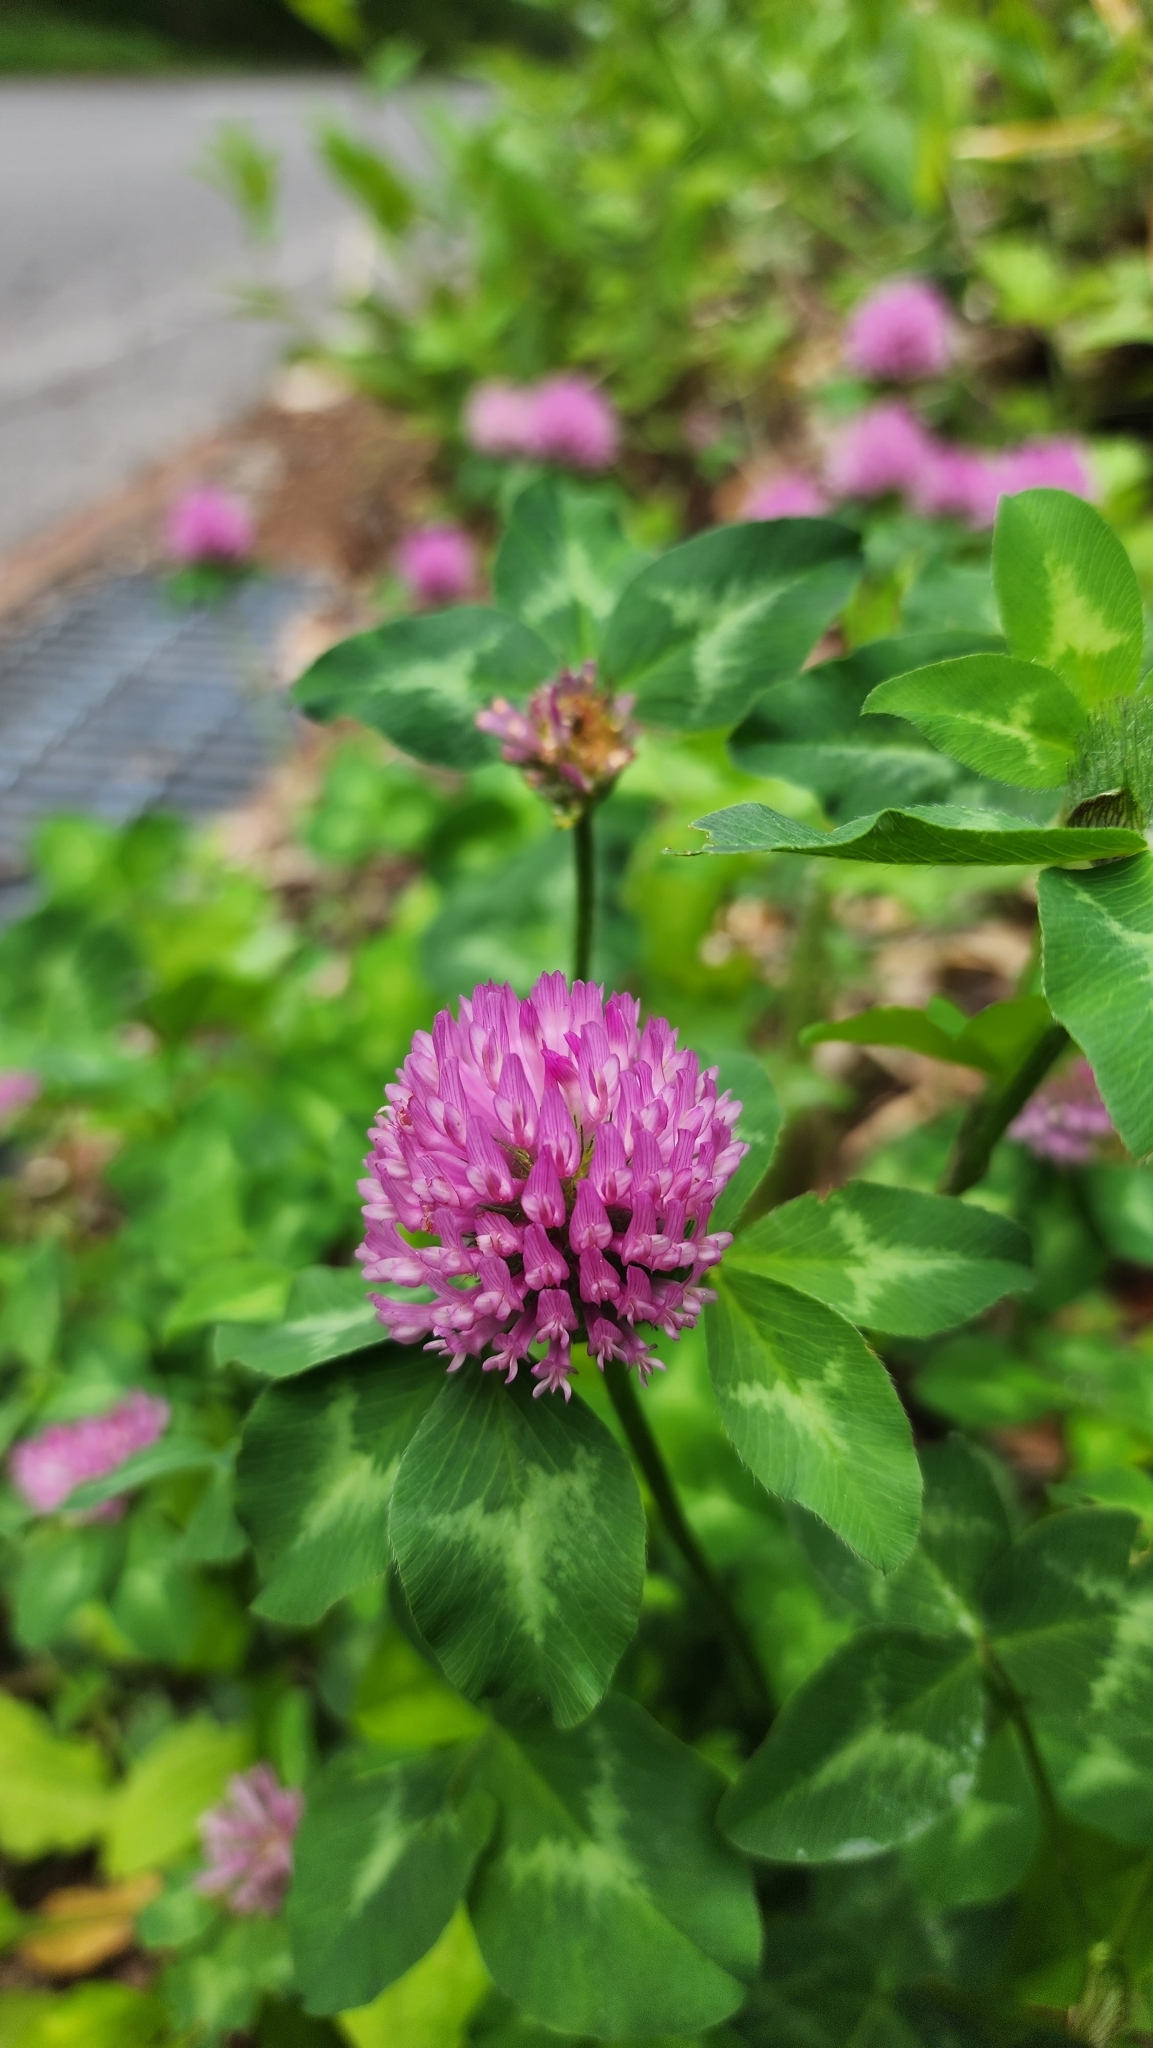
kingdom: Plantae
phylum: Tracheophyta
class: Magnoliopsida
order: Fabales
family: Fabaceae
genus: Trifolium
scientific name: Trifolium pratense
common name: Red clover
